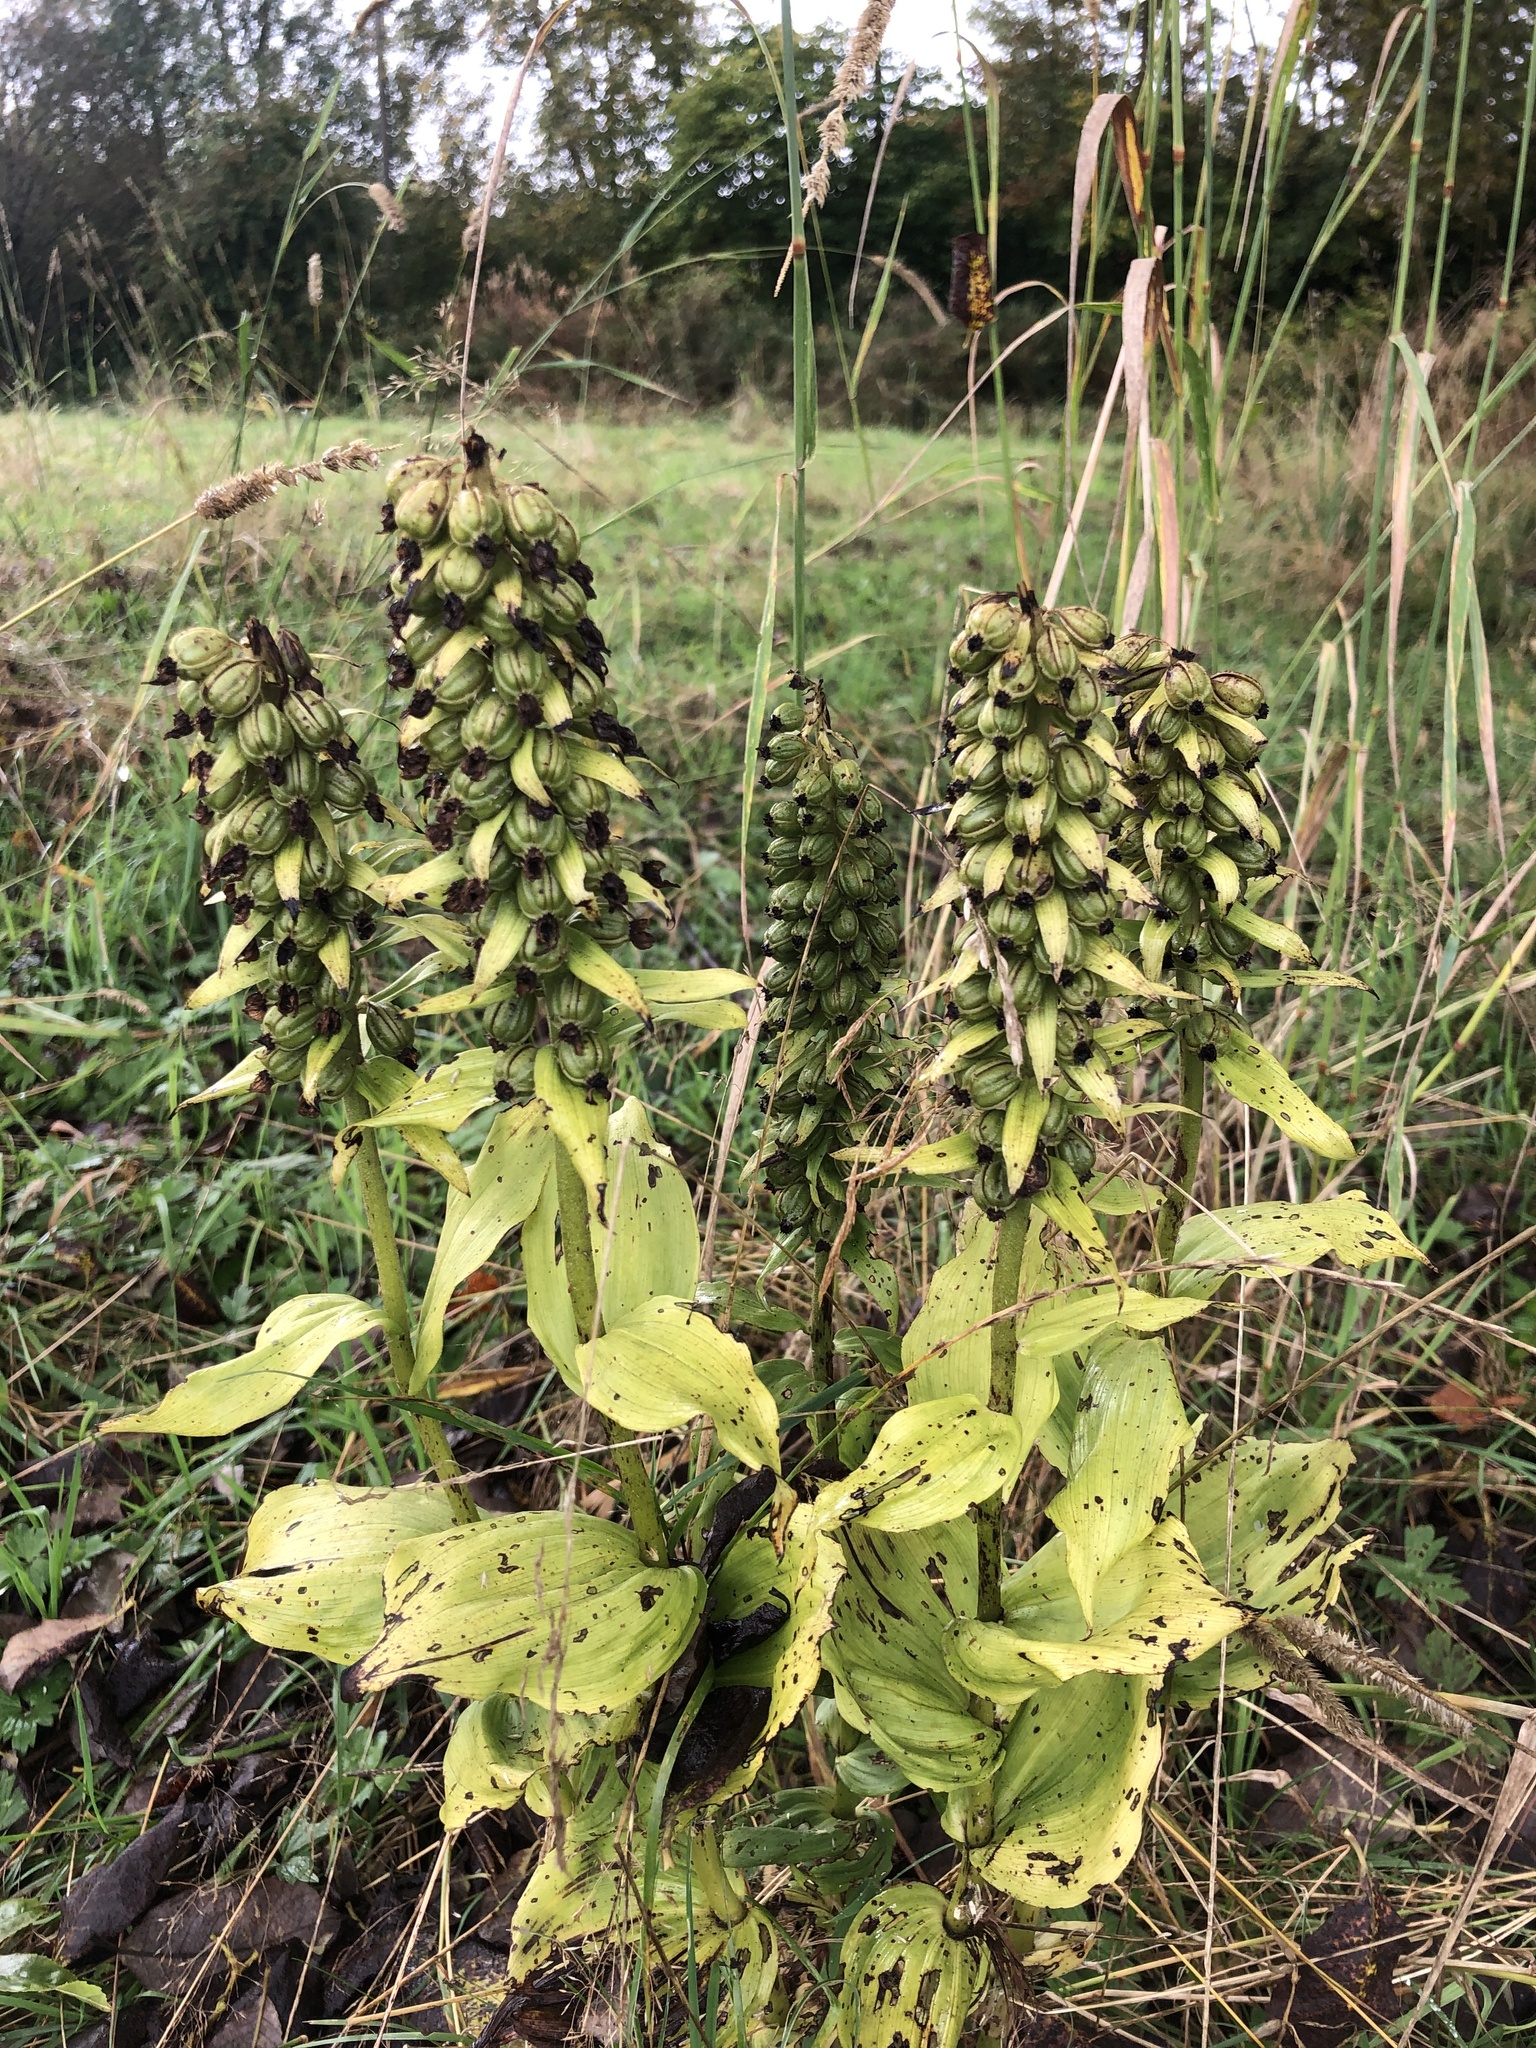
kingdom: Plantae
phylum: Tracheophyta
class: Liliopsida
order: Asparagales
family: Orchidaceae
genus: Epipactis
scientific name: Epipactis helleborine
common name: Broad-leaved helleborine
